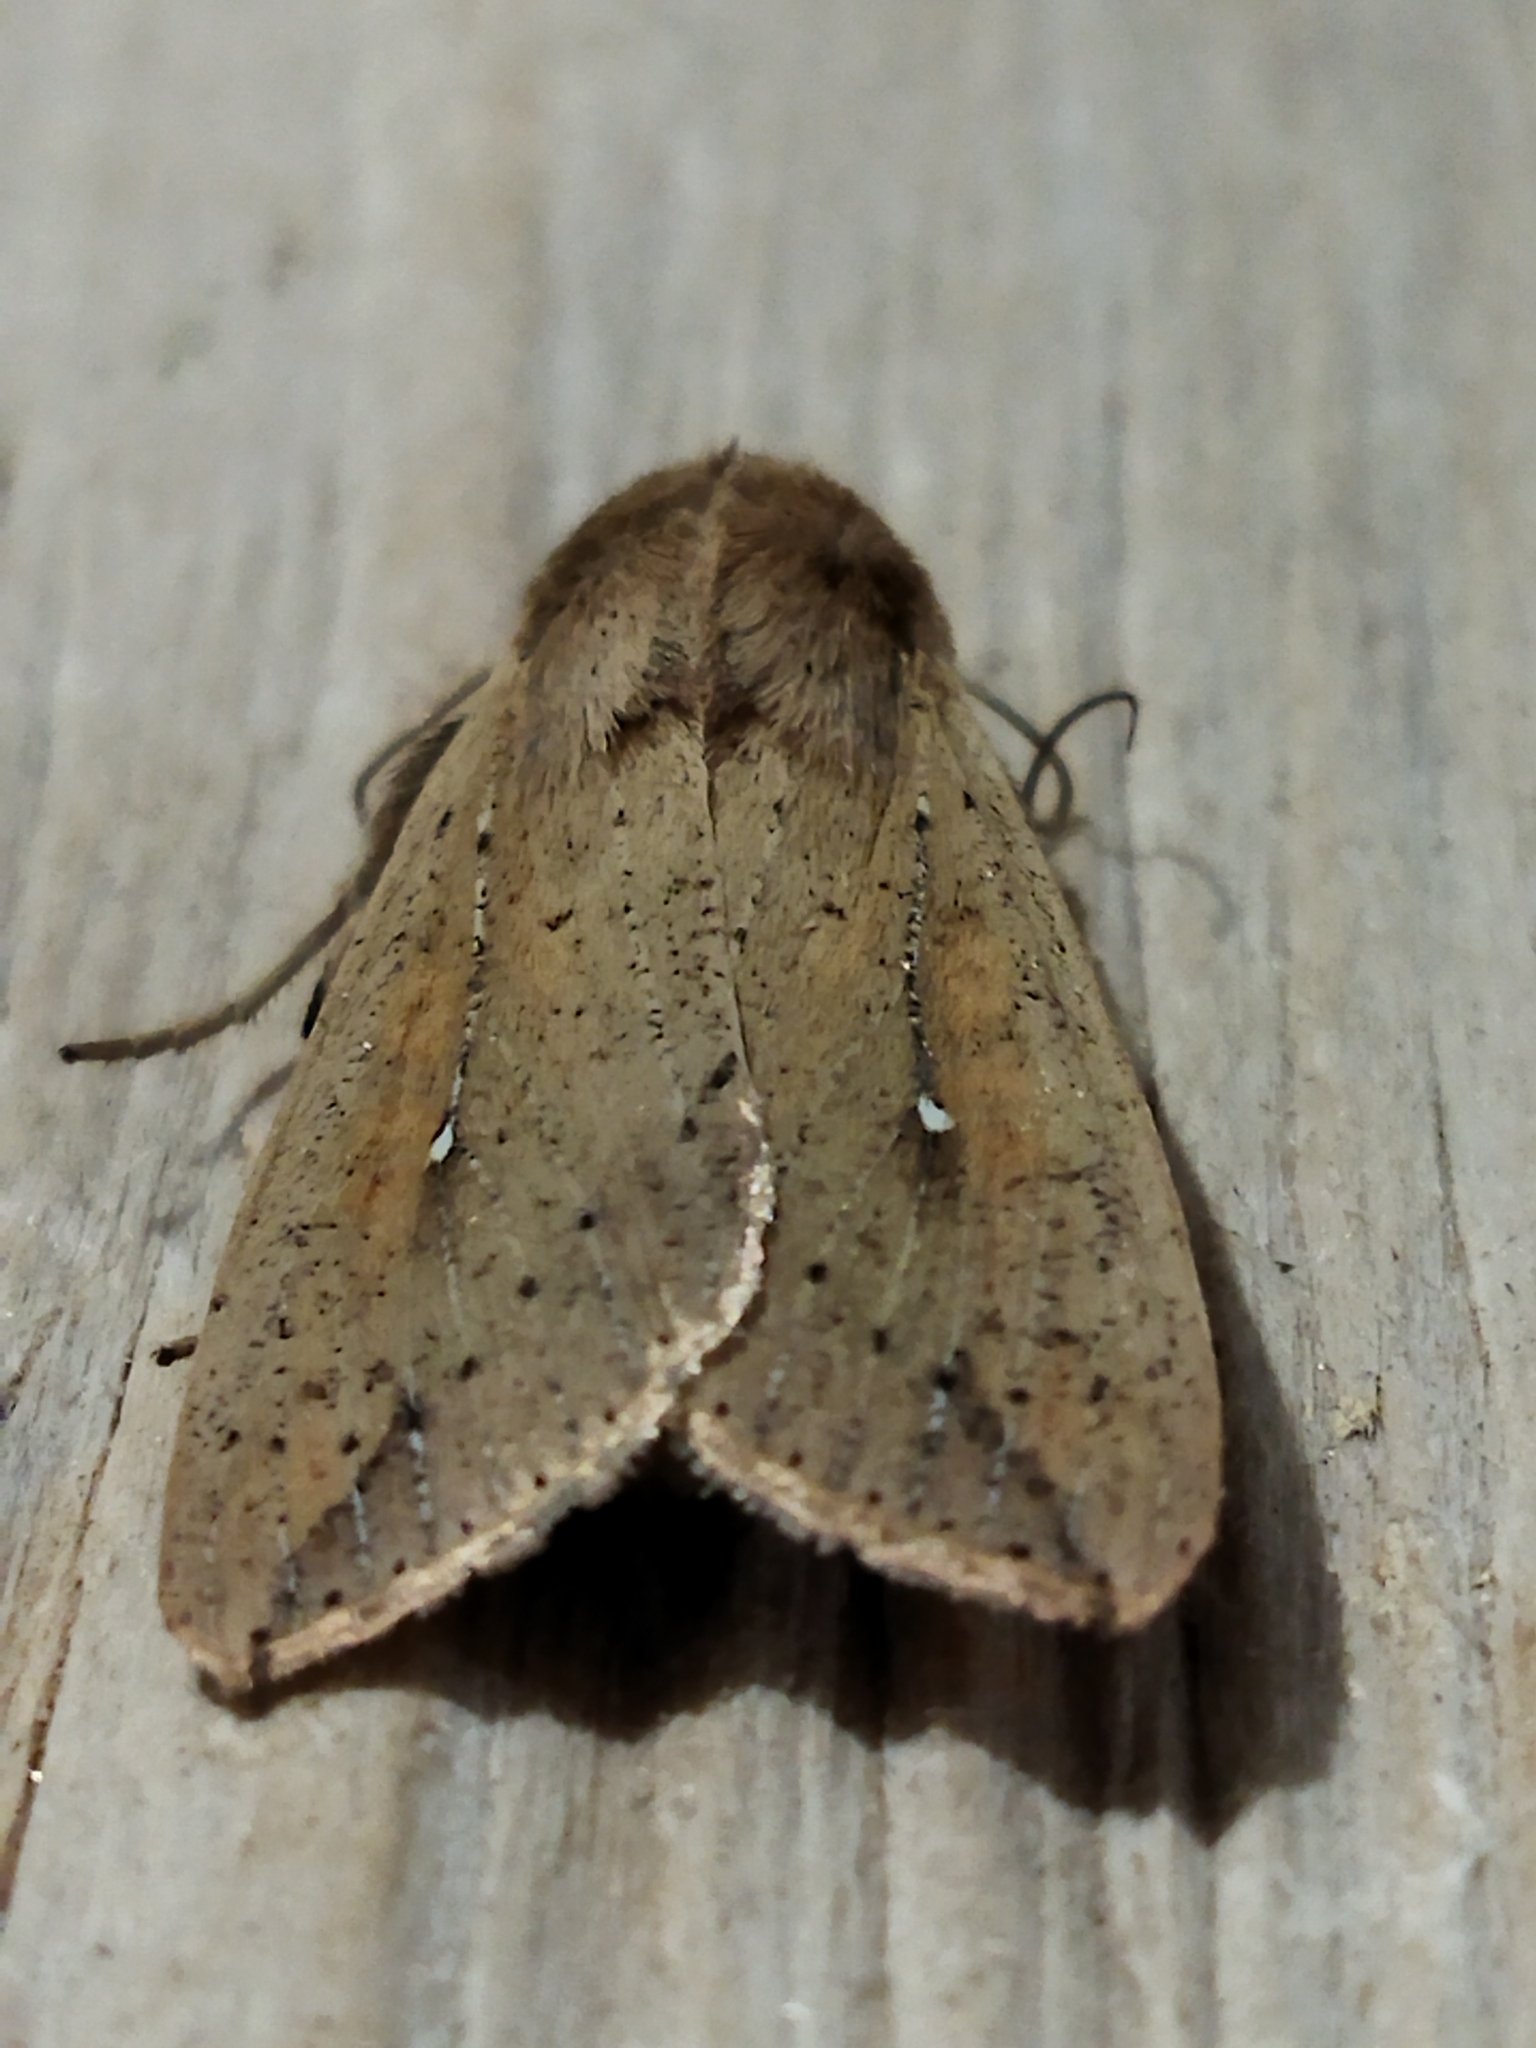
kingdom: Animalia
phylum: Arthropoda
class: Insecta
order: Lepidoptera
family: Noctuidae
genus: Mythimna
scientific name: Mythimna unipuncta
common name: White-speck
